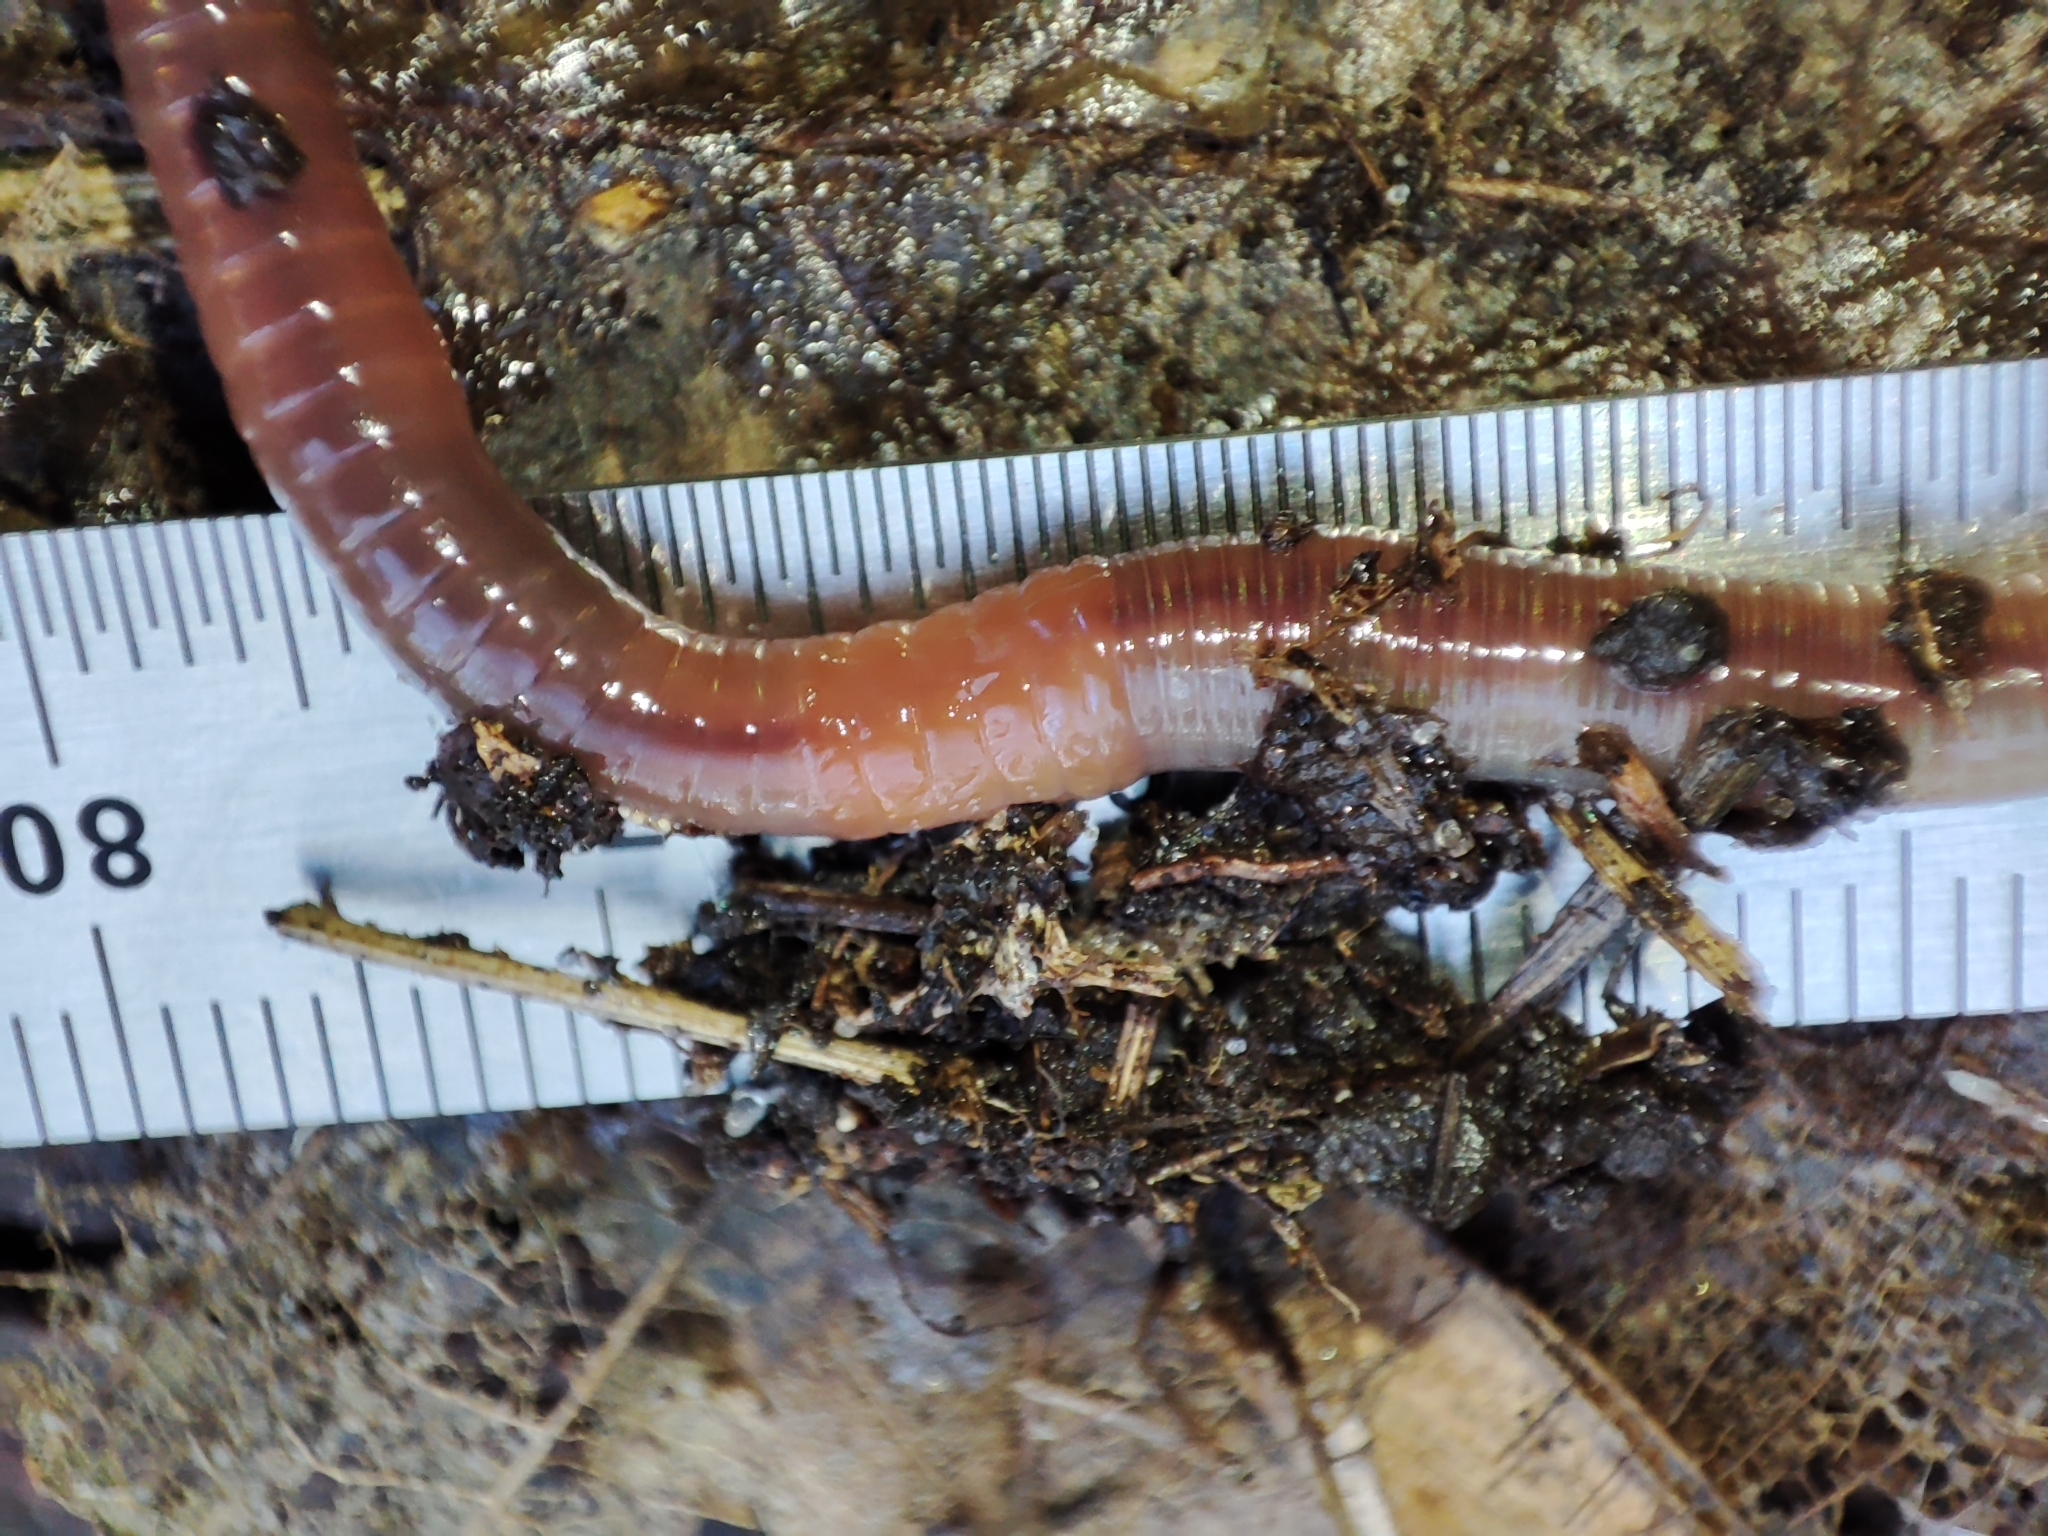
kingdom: Animalia
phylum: Annelida
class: Clitellata
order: Crassiclitellata
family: Lumbricidae
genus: Lumbricus
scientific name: Lumbricus rubellus
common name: Red worm
